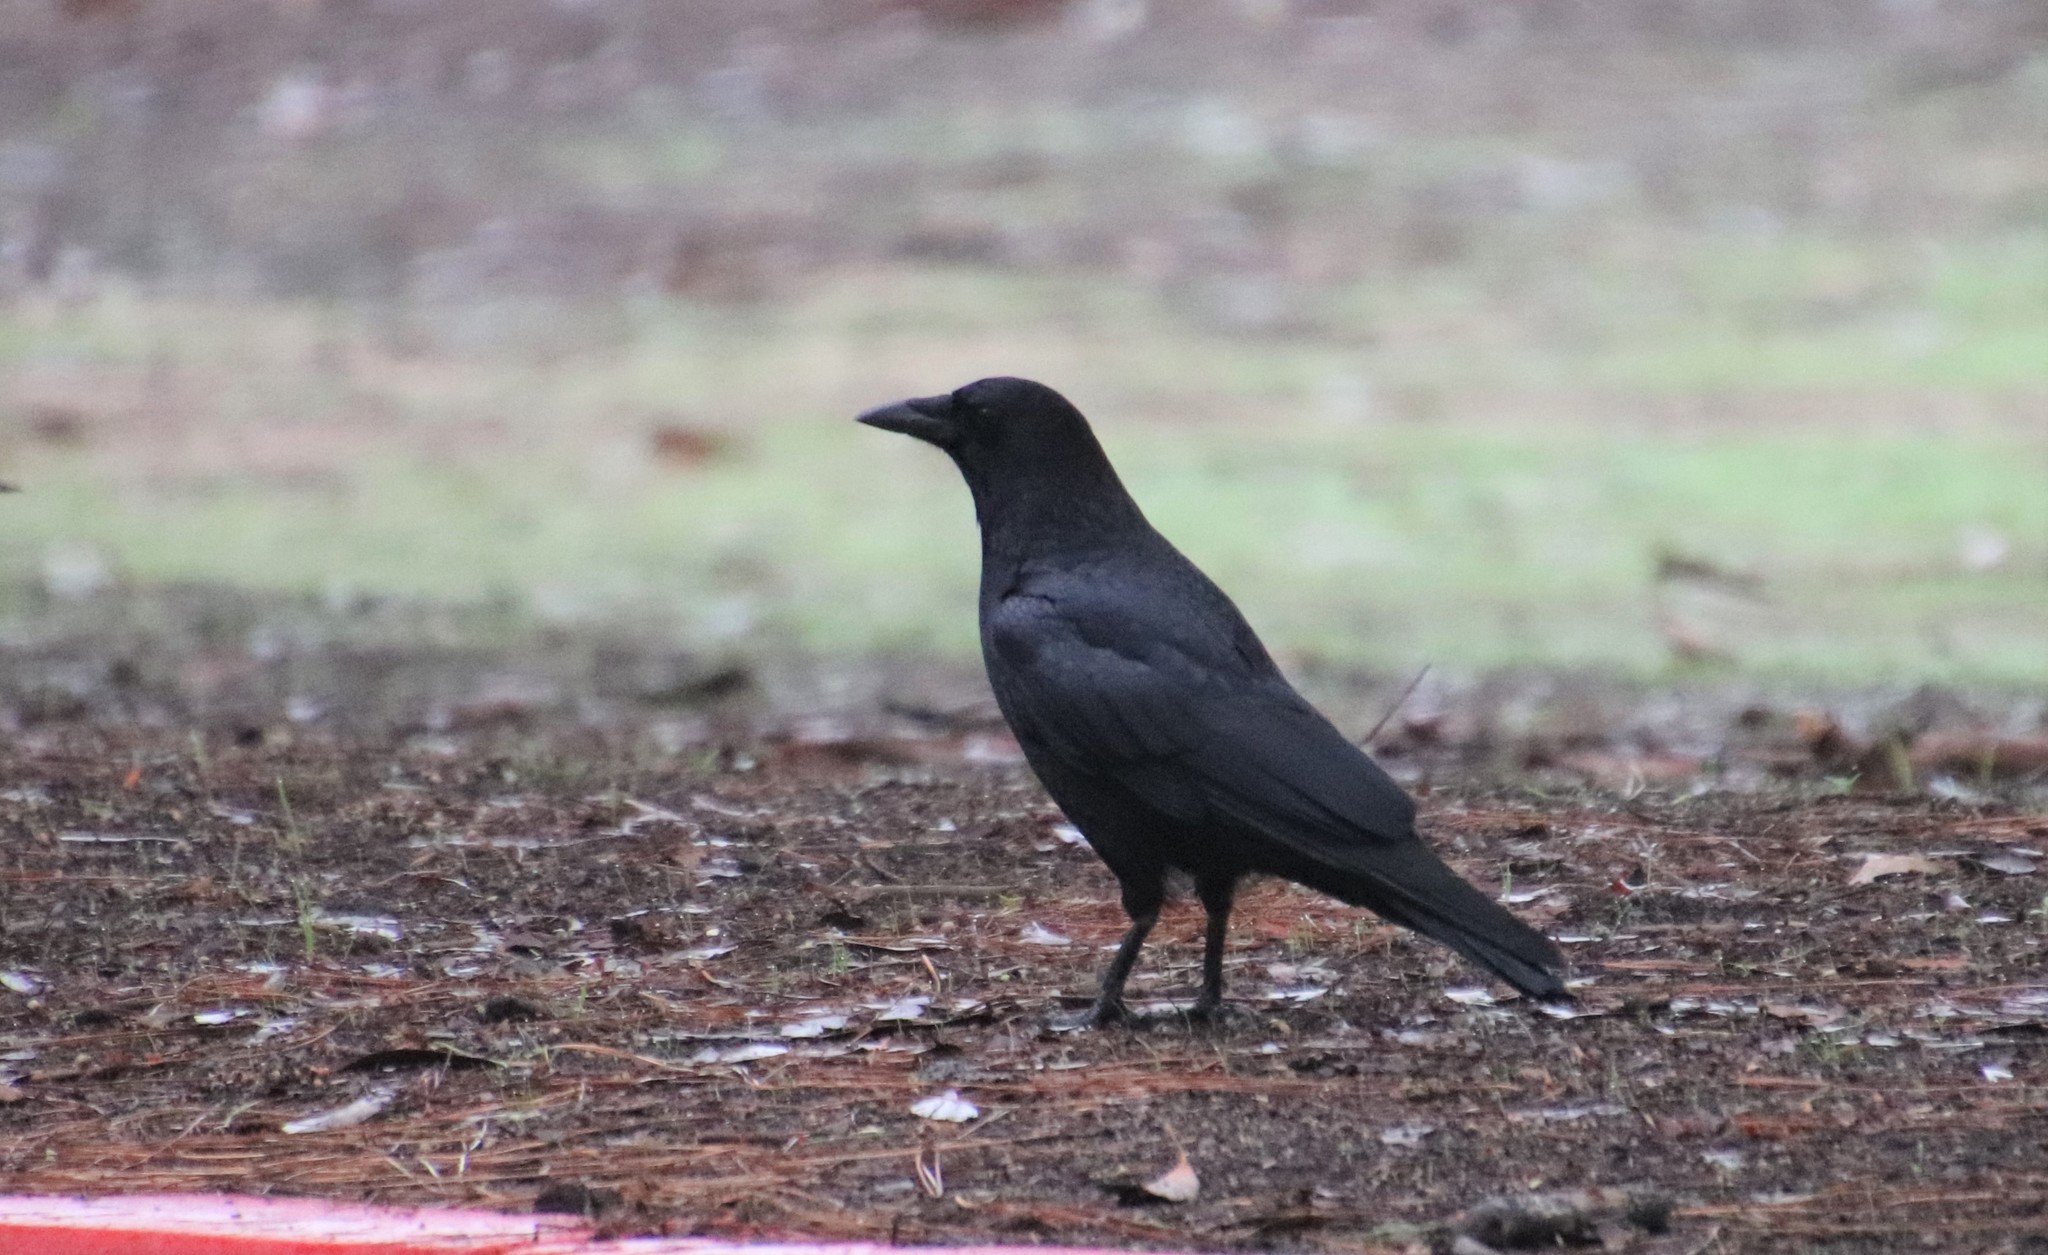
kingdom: Animalia
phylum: Chordata
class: Aves
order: Passeriformes
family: Corvidae
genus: Corvus
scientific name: Corvus brachyrhynchos
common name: American crow
